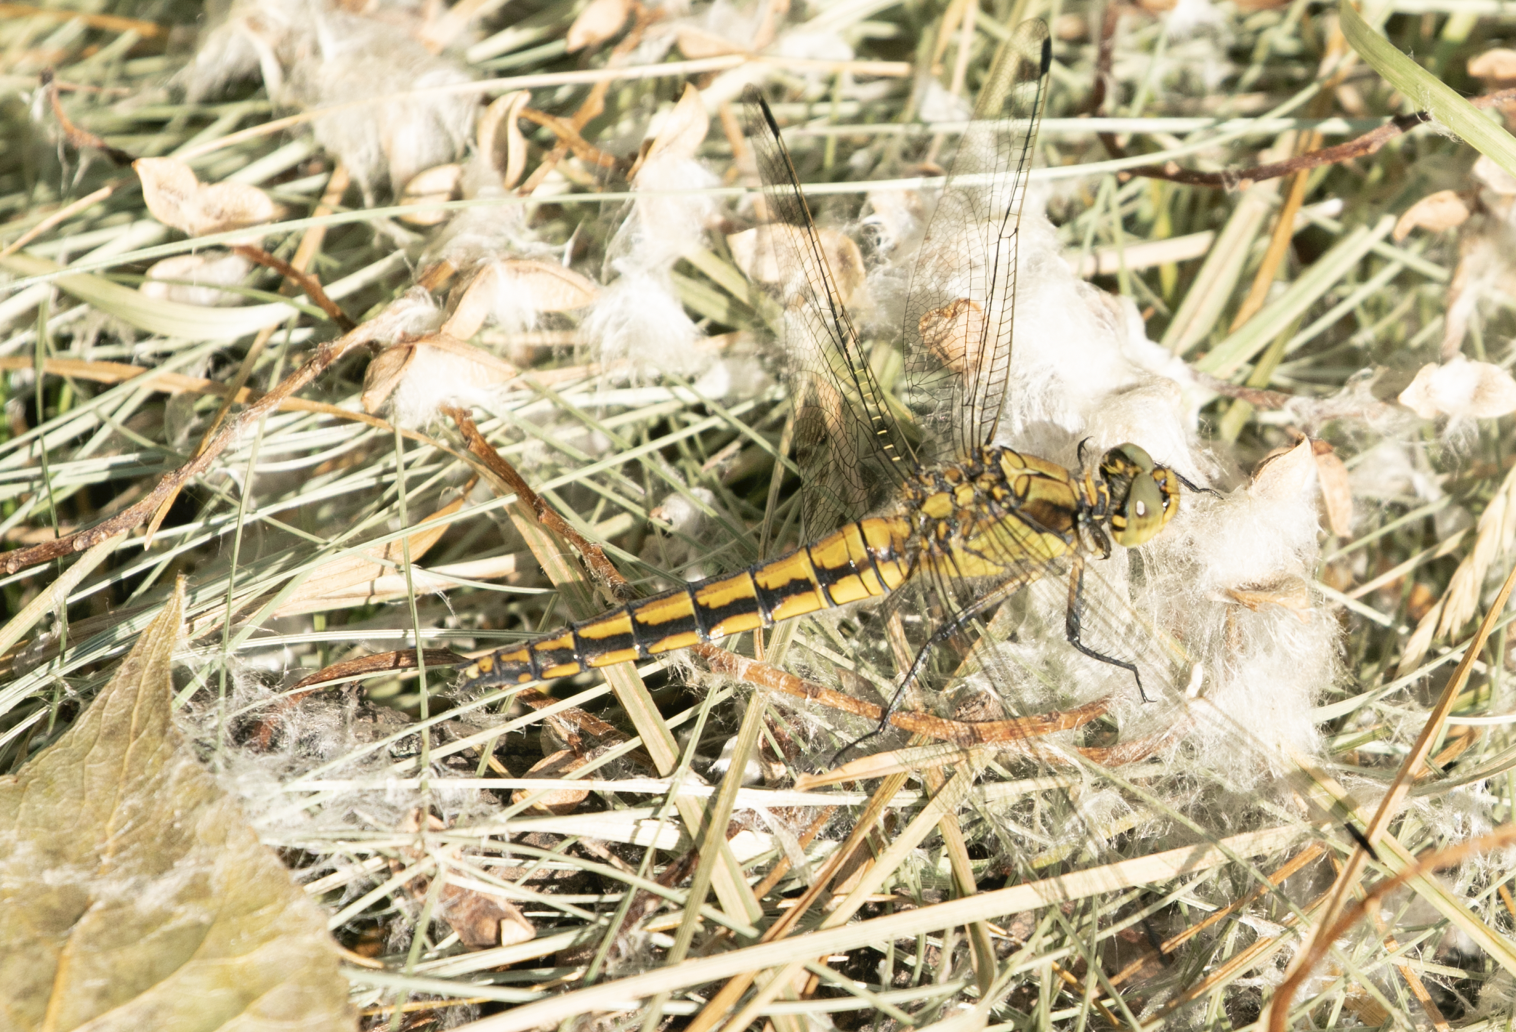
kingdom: Animalia
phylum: Arthropoda
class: Insecta
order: Odonata
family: Libellulidae
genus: Orthetrum
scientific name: Orthetrum cancellatum
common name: Black-tailed skimmer
